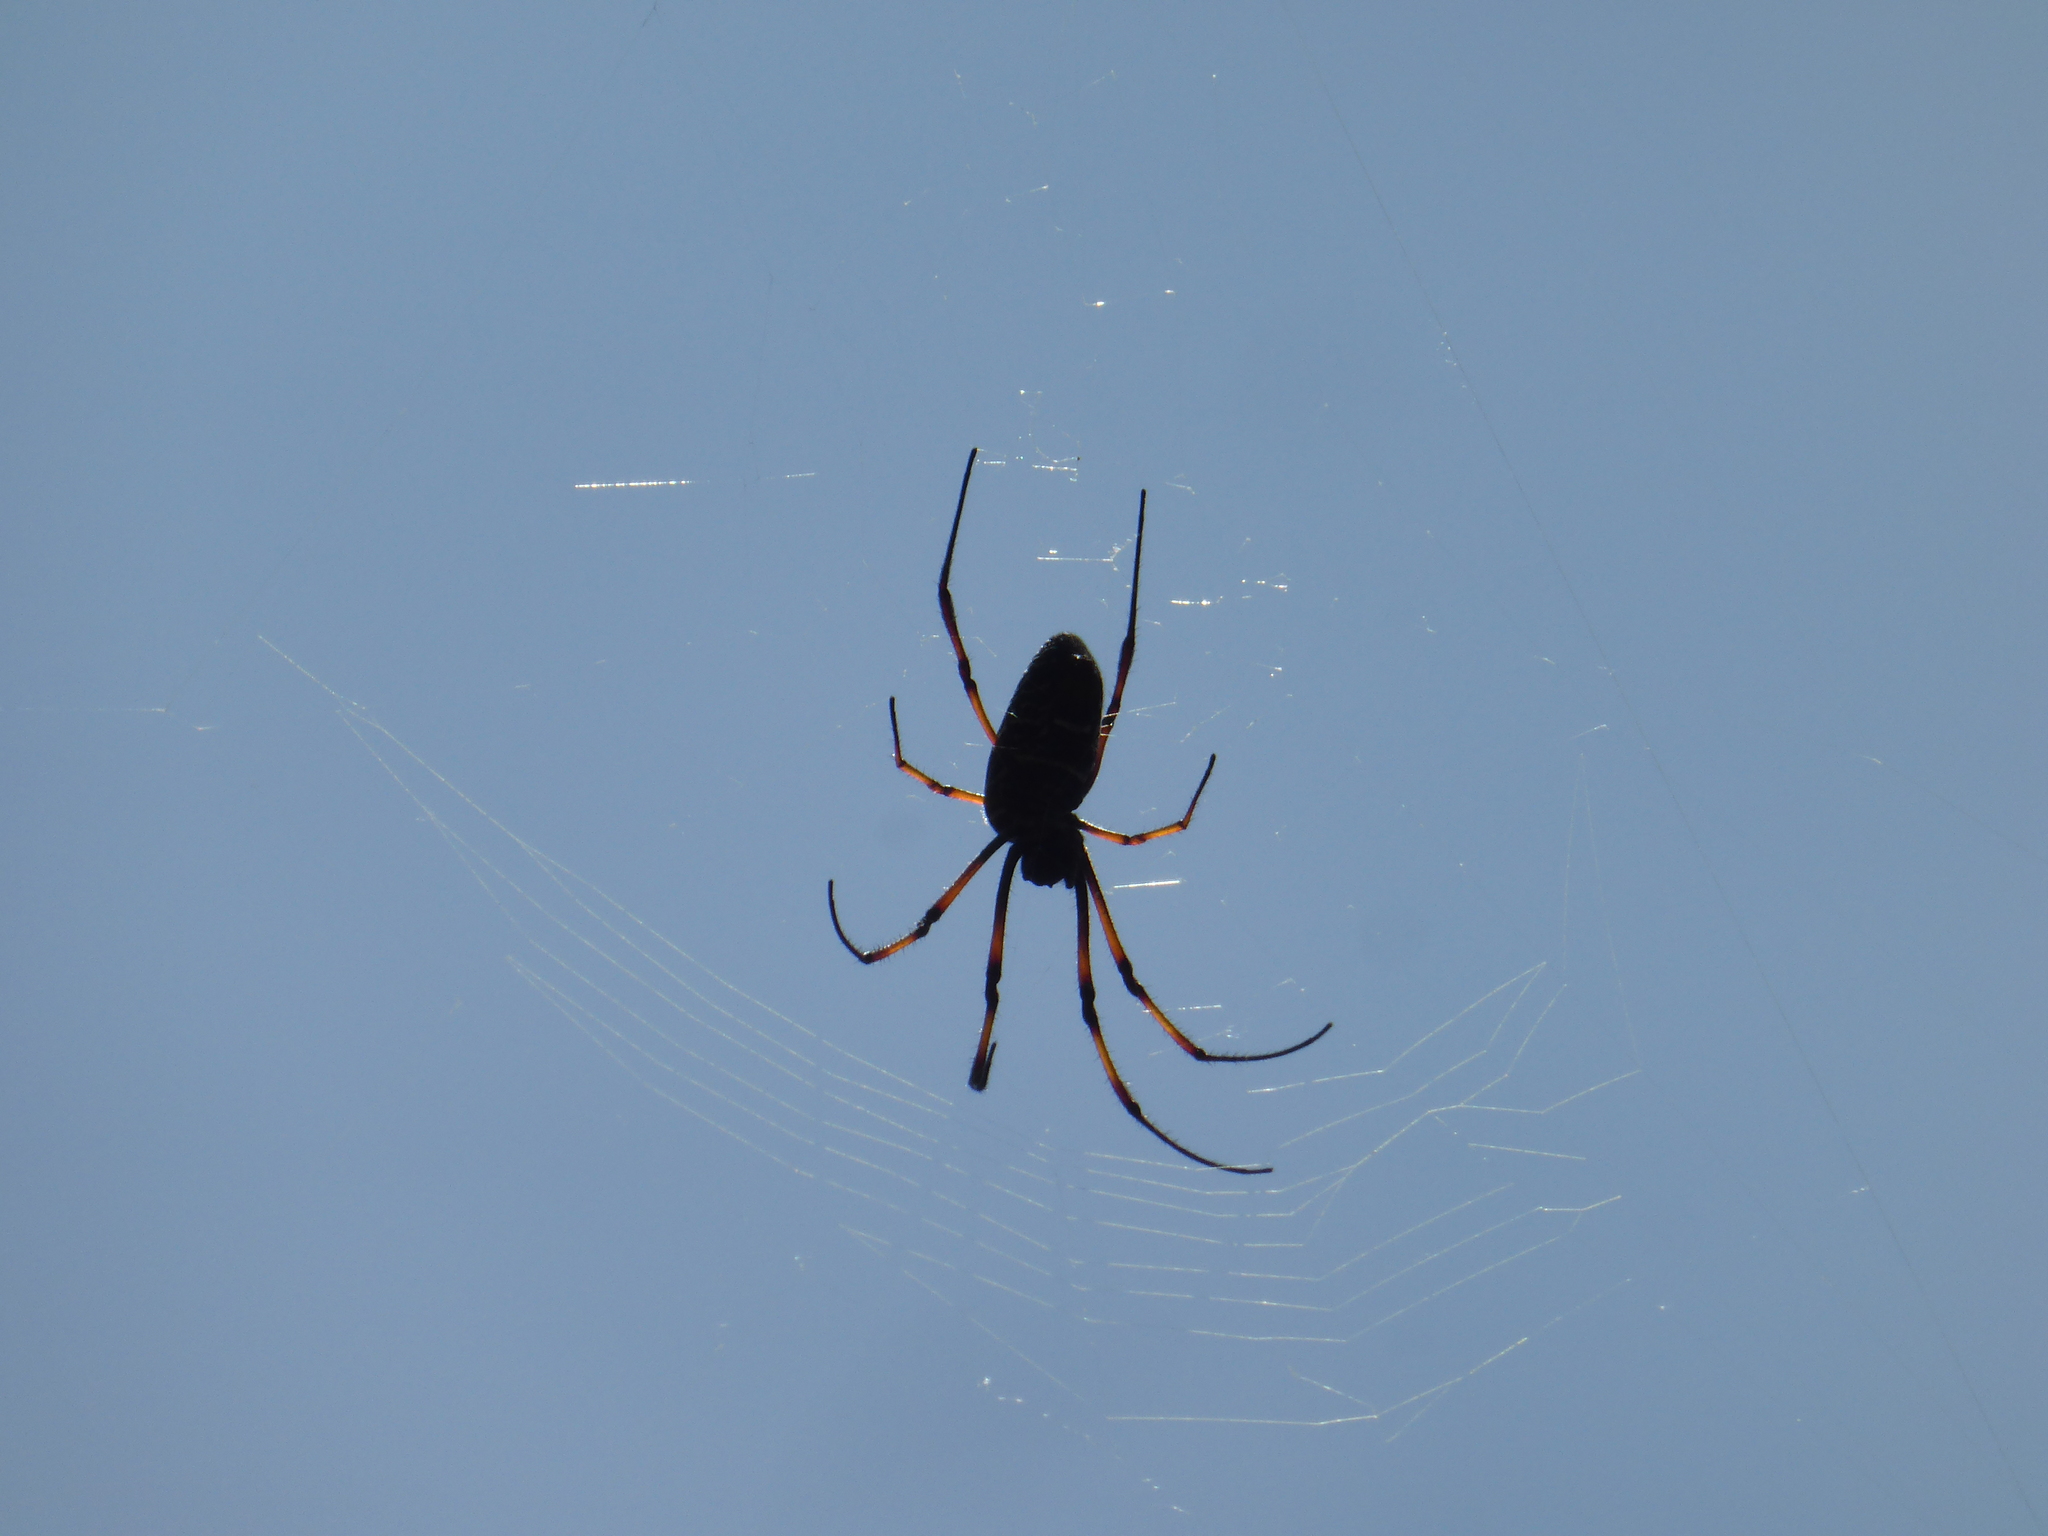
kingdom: Animalia
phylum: Arthropoda
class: Arachnida
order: Araneae
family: Araneidae
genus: Trichonephila
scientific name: Trichonephila inaurata
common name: Red-legged golden orb weaver
